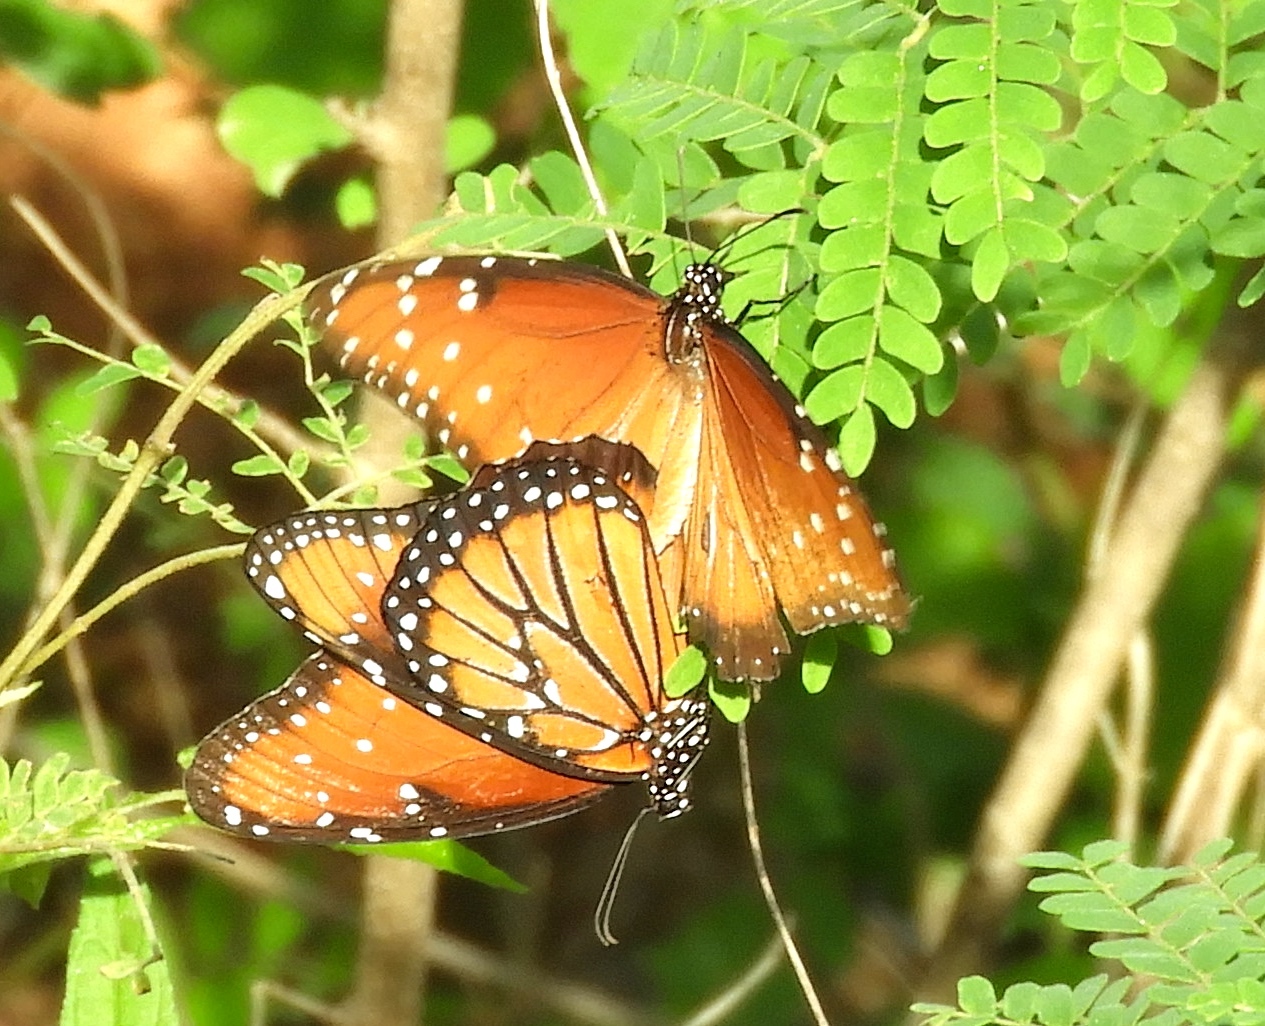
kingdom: Animalia
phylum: Arthropoda
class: Insecta
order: Lepidoptera
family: Nymphalidae
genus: Danaus
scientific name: Danaus gilippus
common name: Queen
